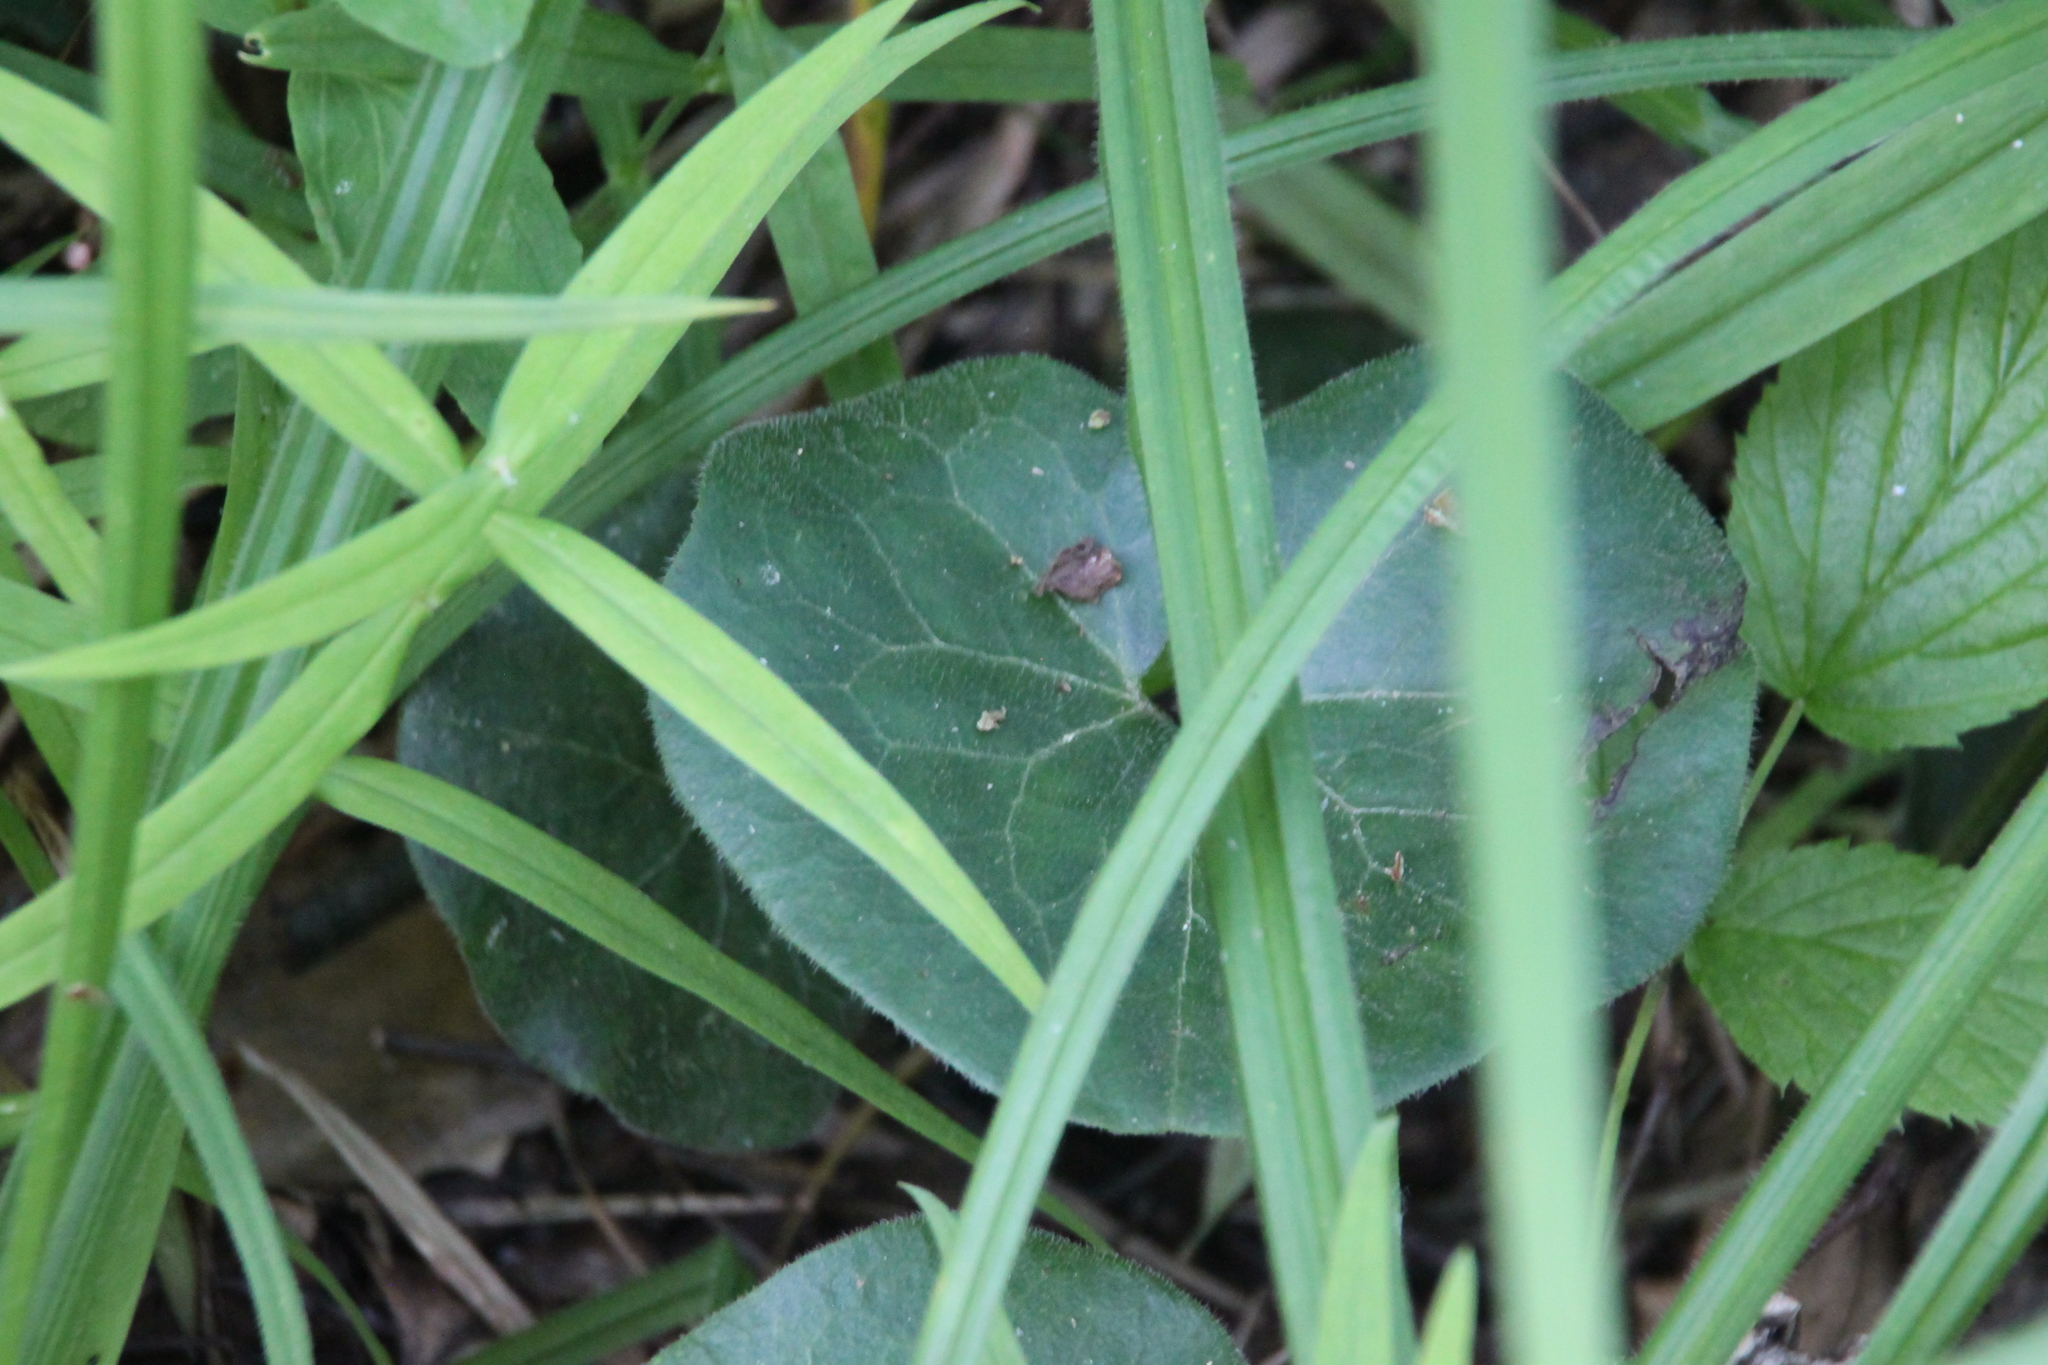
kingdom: Plantae
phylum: Tracheophyta
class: Magnoliopsida
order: Piperales
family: Aristolochiaceae
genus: Asarum
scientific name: Asarum europaeum
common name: Asarabacca
